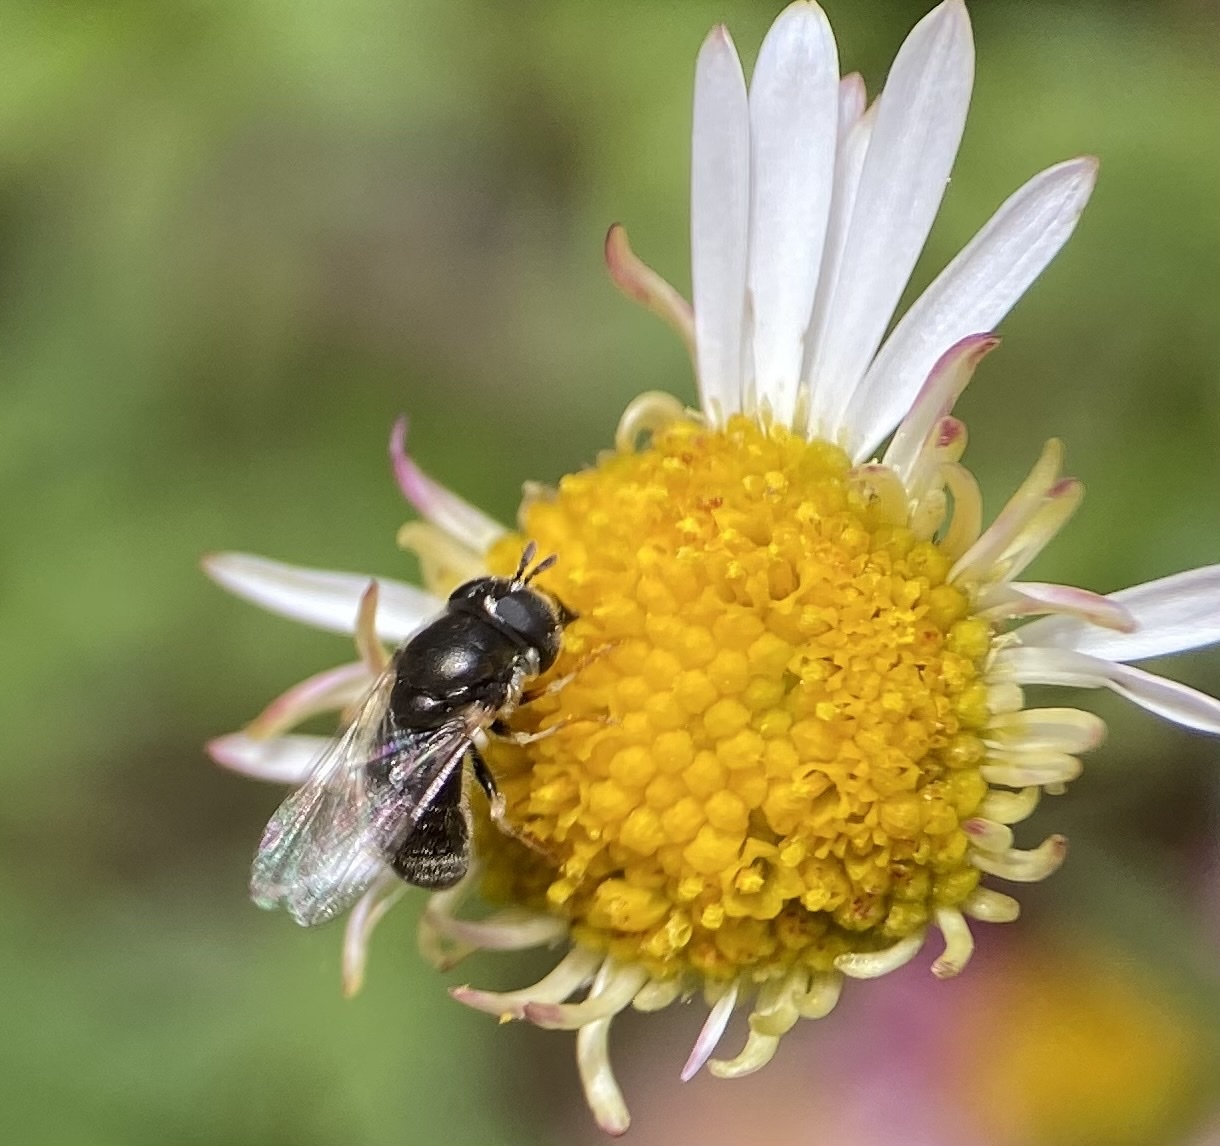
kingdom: Animalia
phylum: Arthropoda
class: Insecta
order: Diptera
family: Syrphidae
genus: Paragus
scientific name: Paragus haemorrhous
